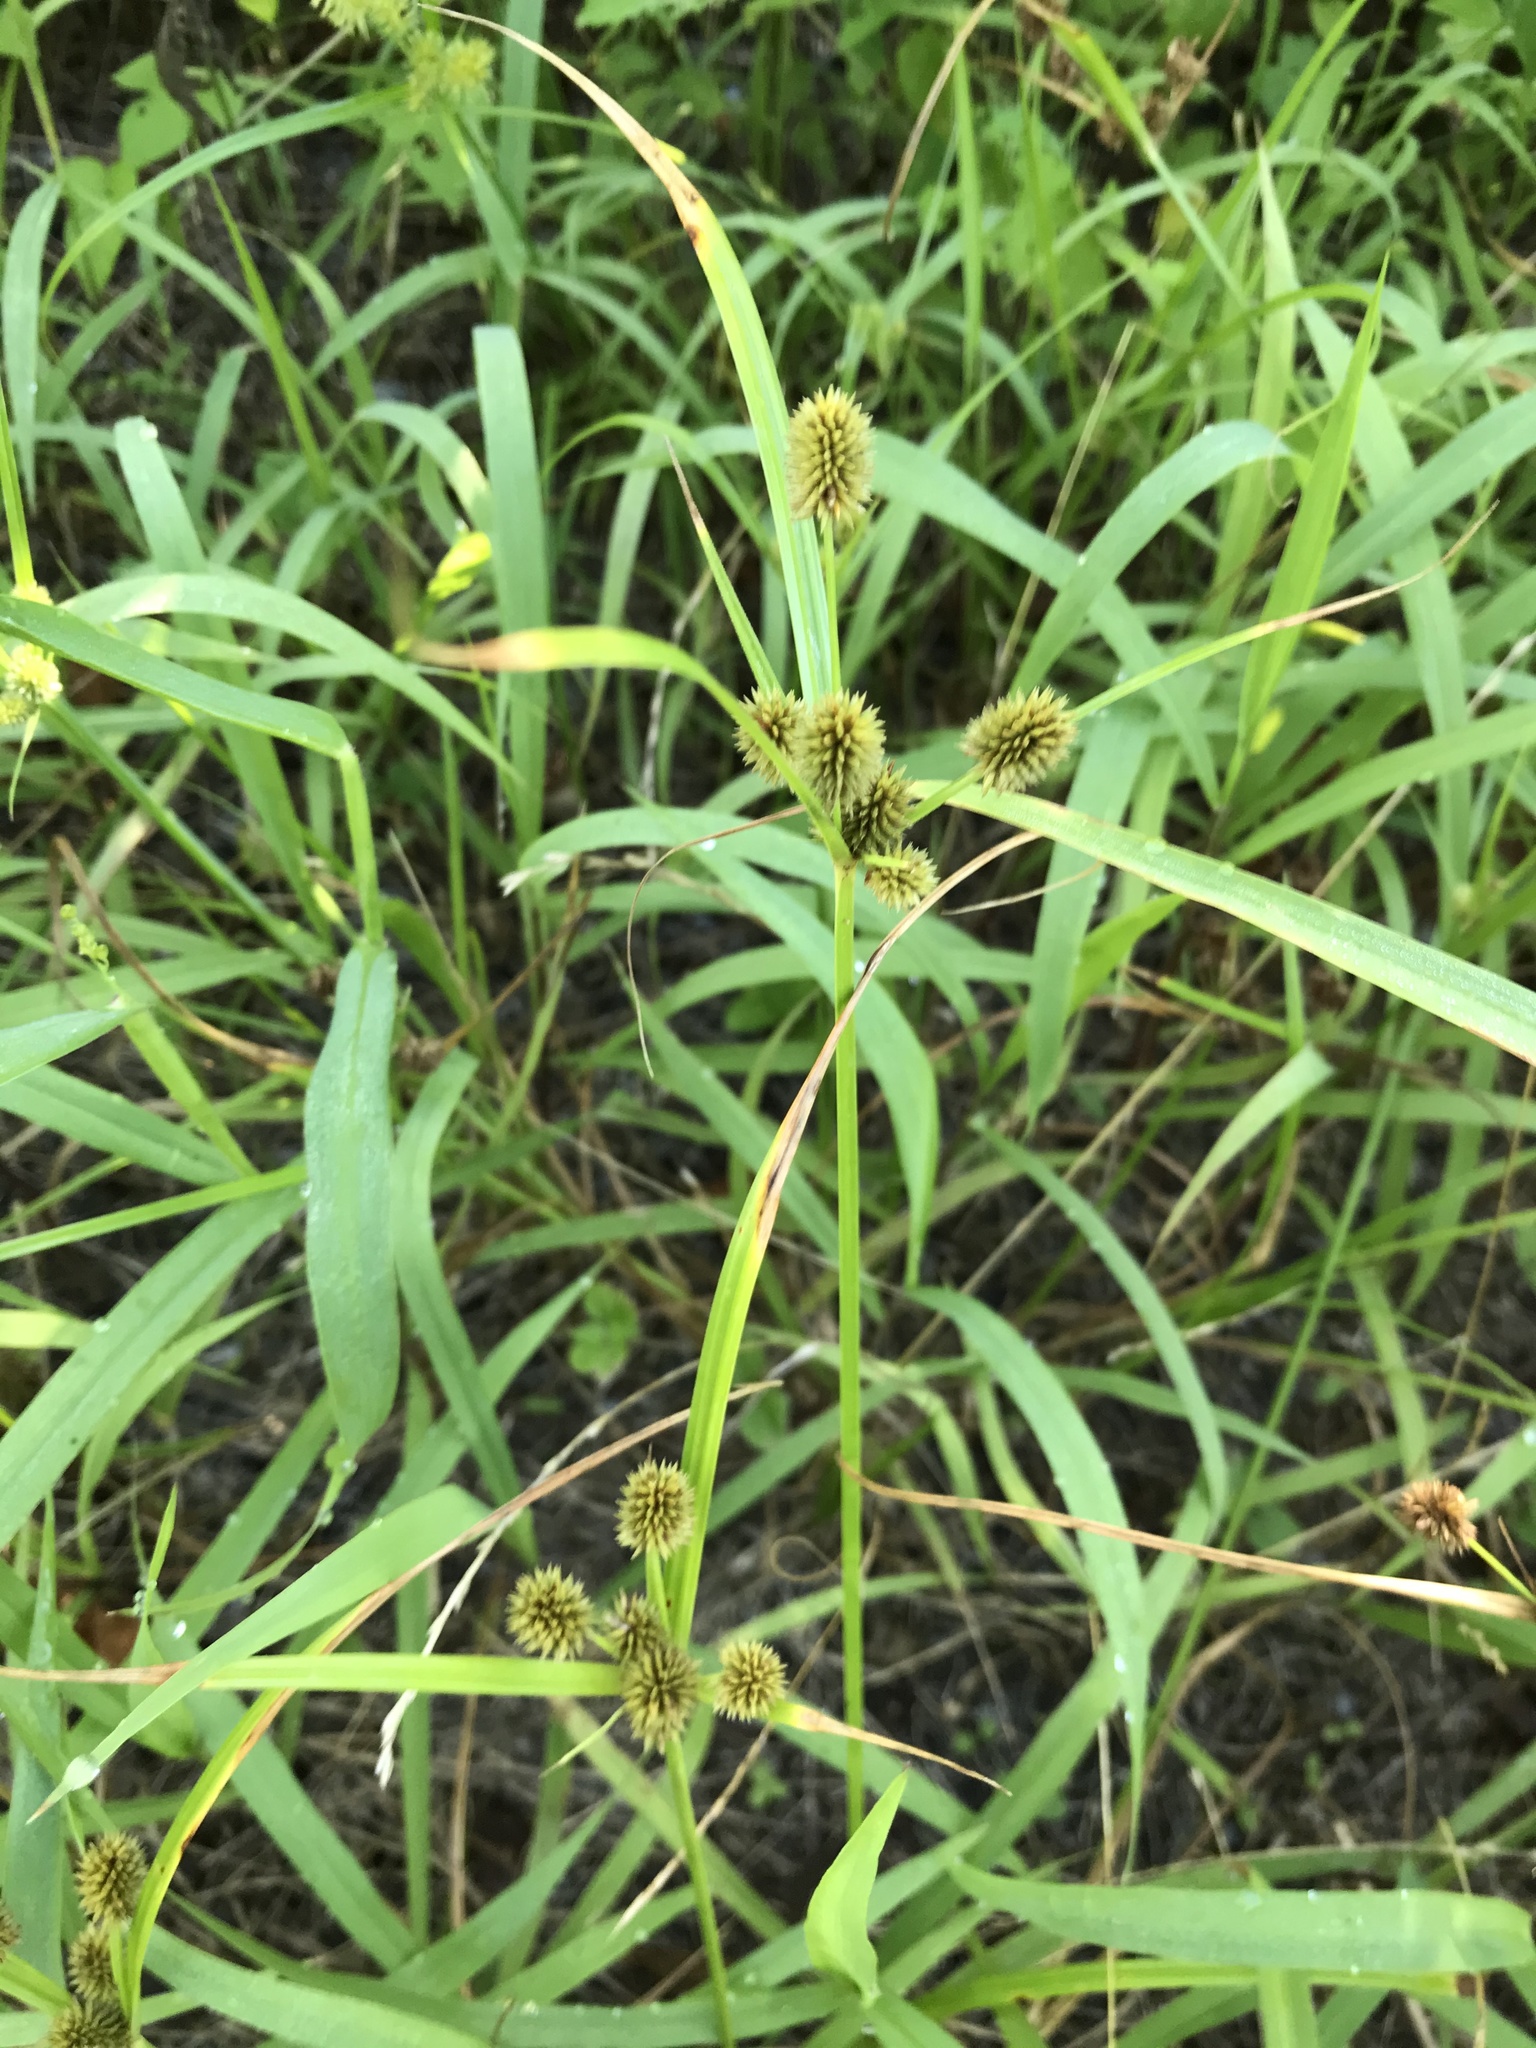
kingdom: Plantae
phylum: Tracheophyta
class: Liliopsida
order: Poales
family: Cyperaceae
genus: Cyperus
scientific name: Cyperus echinatus
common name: Teasel sedge
